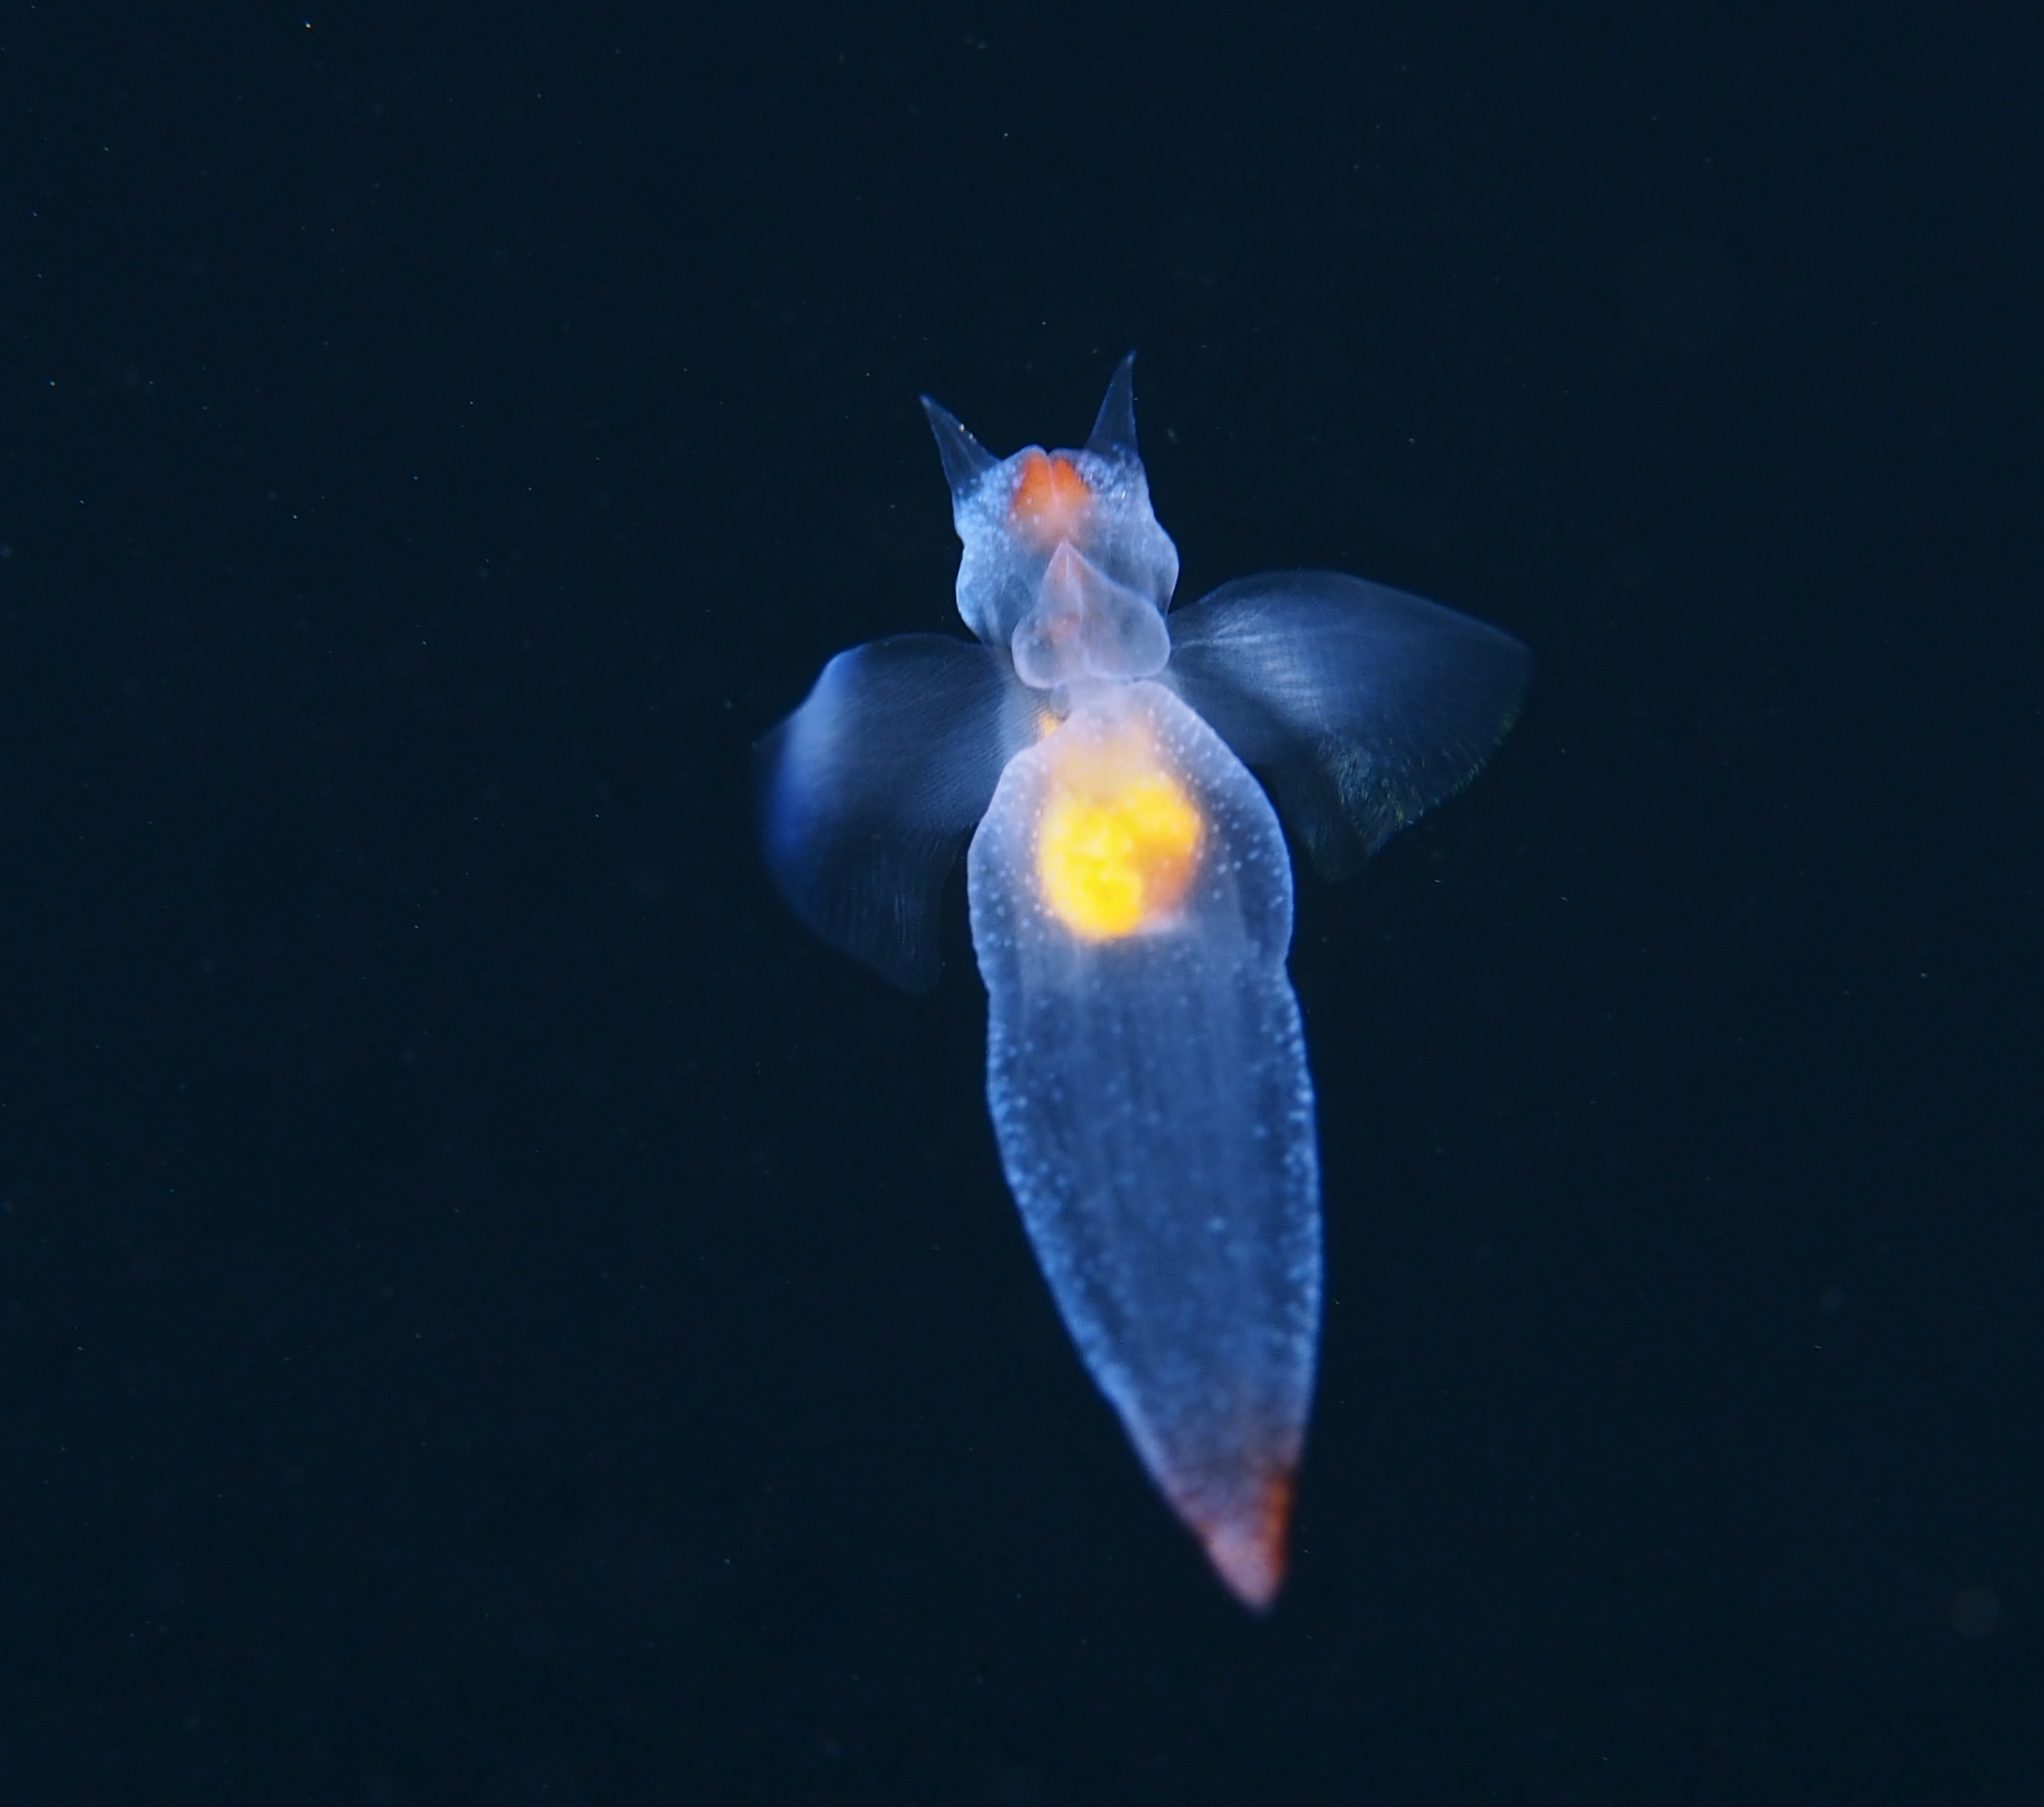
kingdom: Animalia
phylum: Mollusca
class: Gastropoda
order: Pteropoda
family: Clionidae
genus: Clione
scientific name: Clione limacina
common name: Common clione
